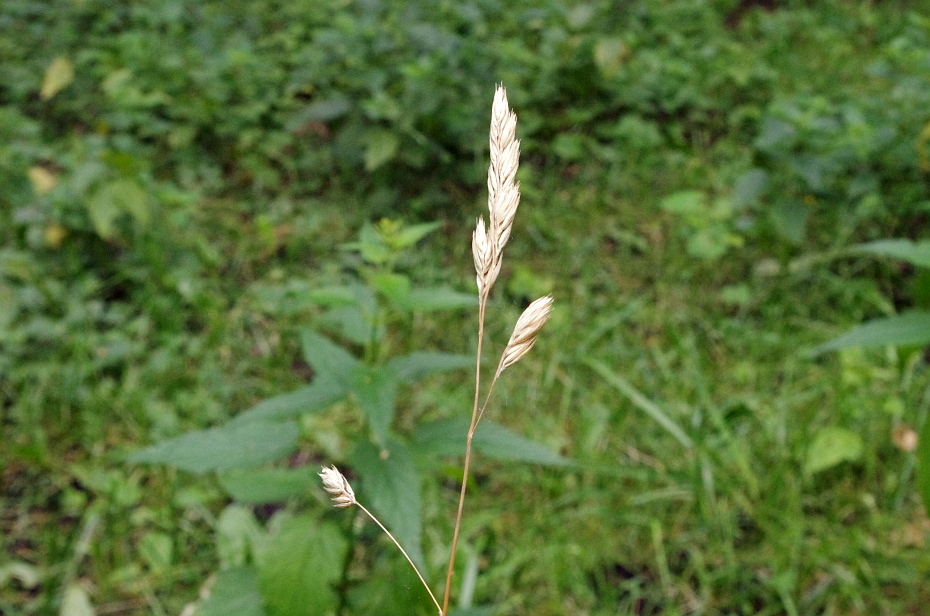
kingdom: Plantae
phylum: Tracheophyta
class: Liliopsida
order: Poales
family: Poaceae
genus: Dactylis
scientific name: Dactylis glomerata
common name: Orchardgrass
